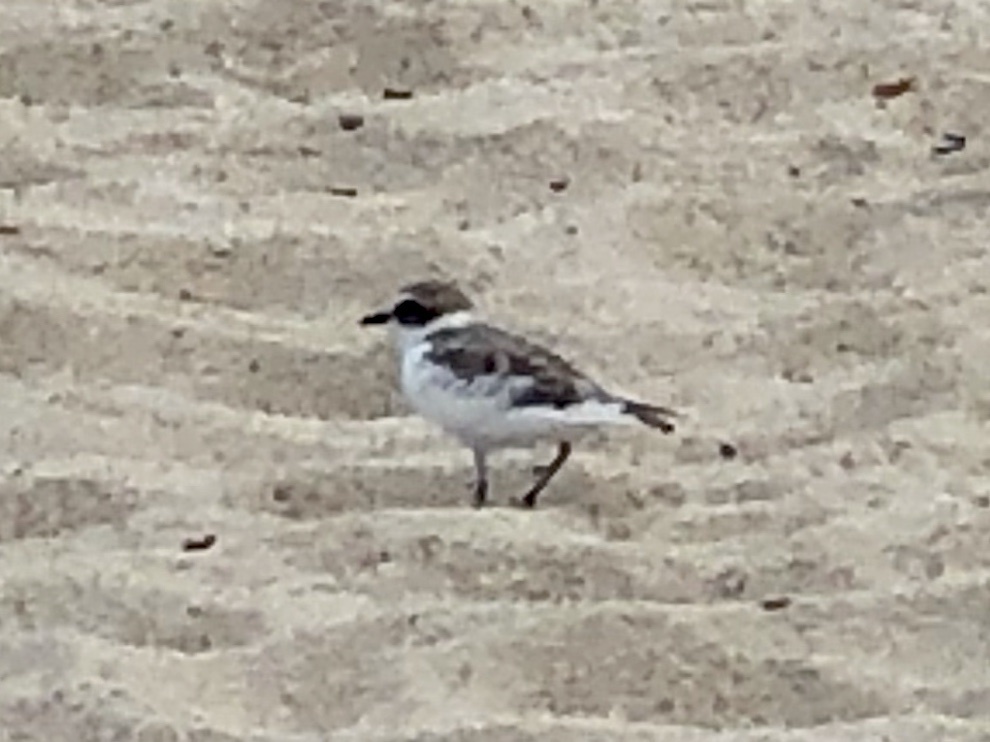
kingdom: Animalia
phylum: Chordata
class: Aves
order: Charadriiformes
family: Charadriidae
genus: Anarhynchus
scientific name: Anarhynchus
